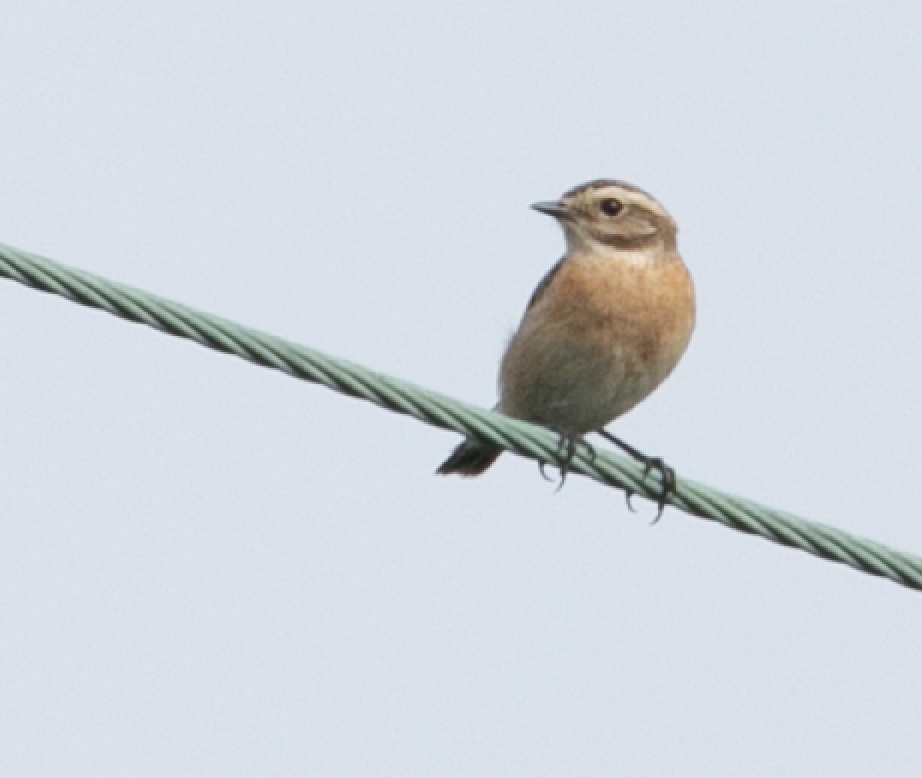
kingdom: Animalia
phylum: Chordata
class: Aves
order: Passeriformes
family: Muscicapidae
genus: Saxicola
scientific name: Saxicola rubetra
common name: Whinchat
